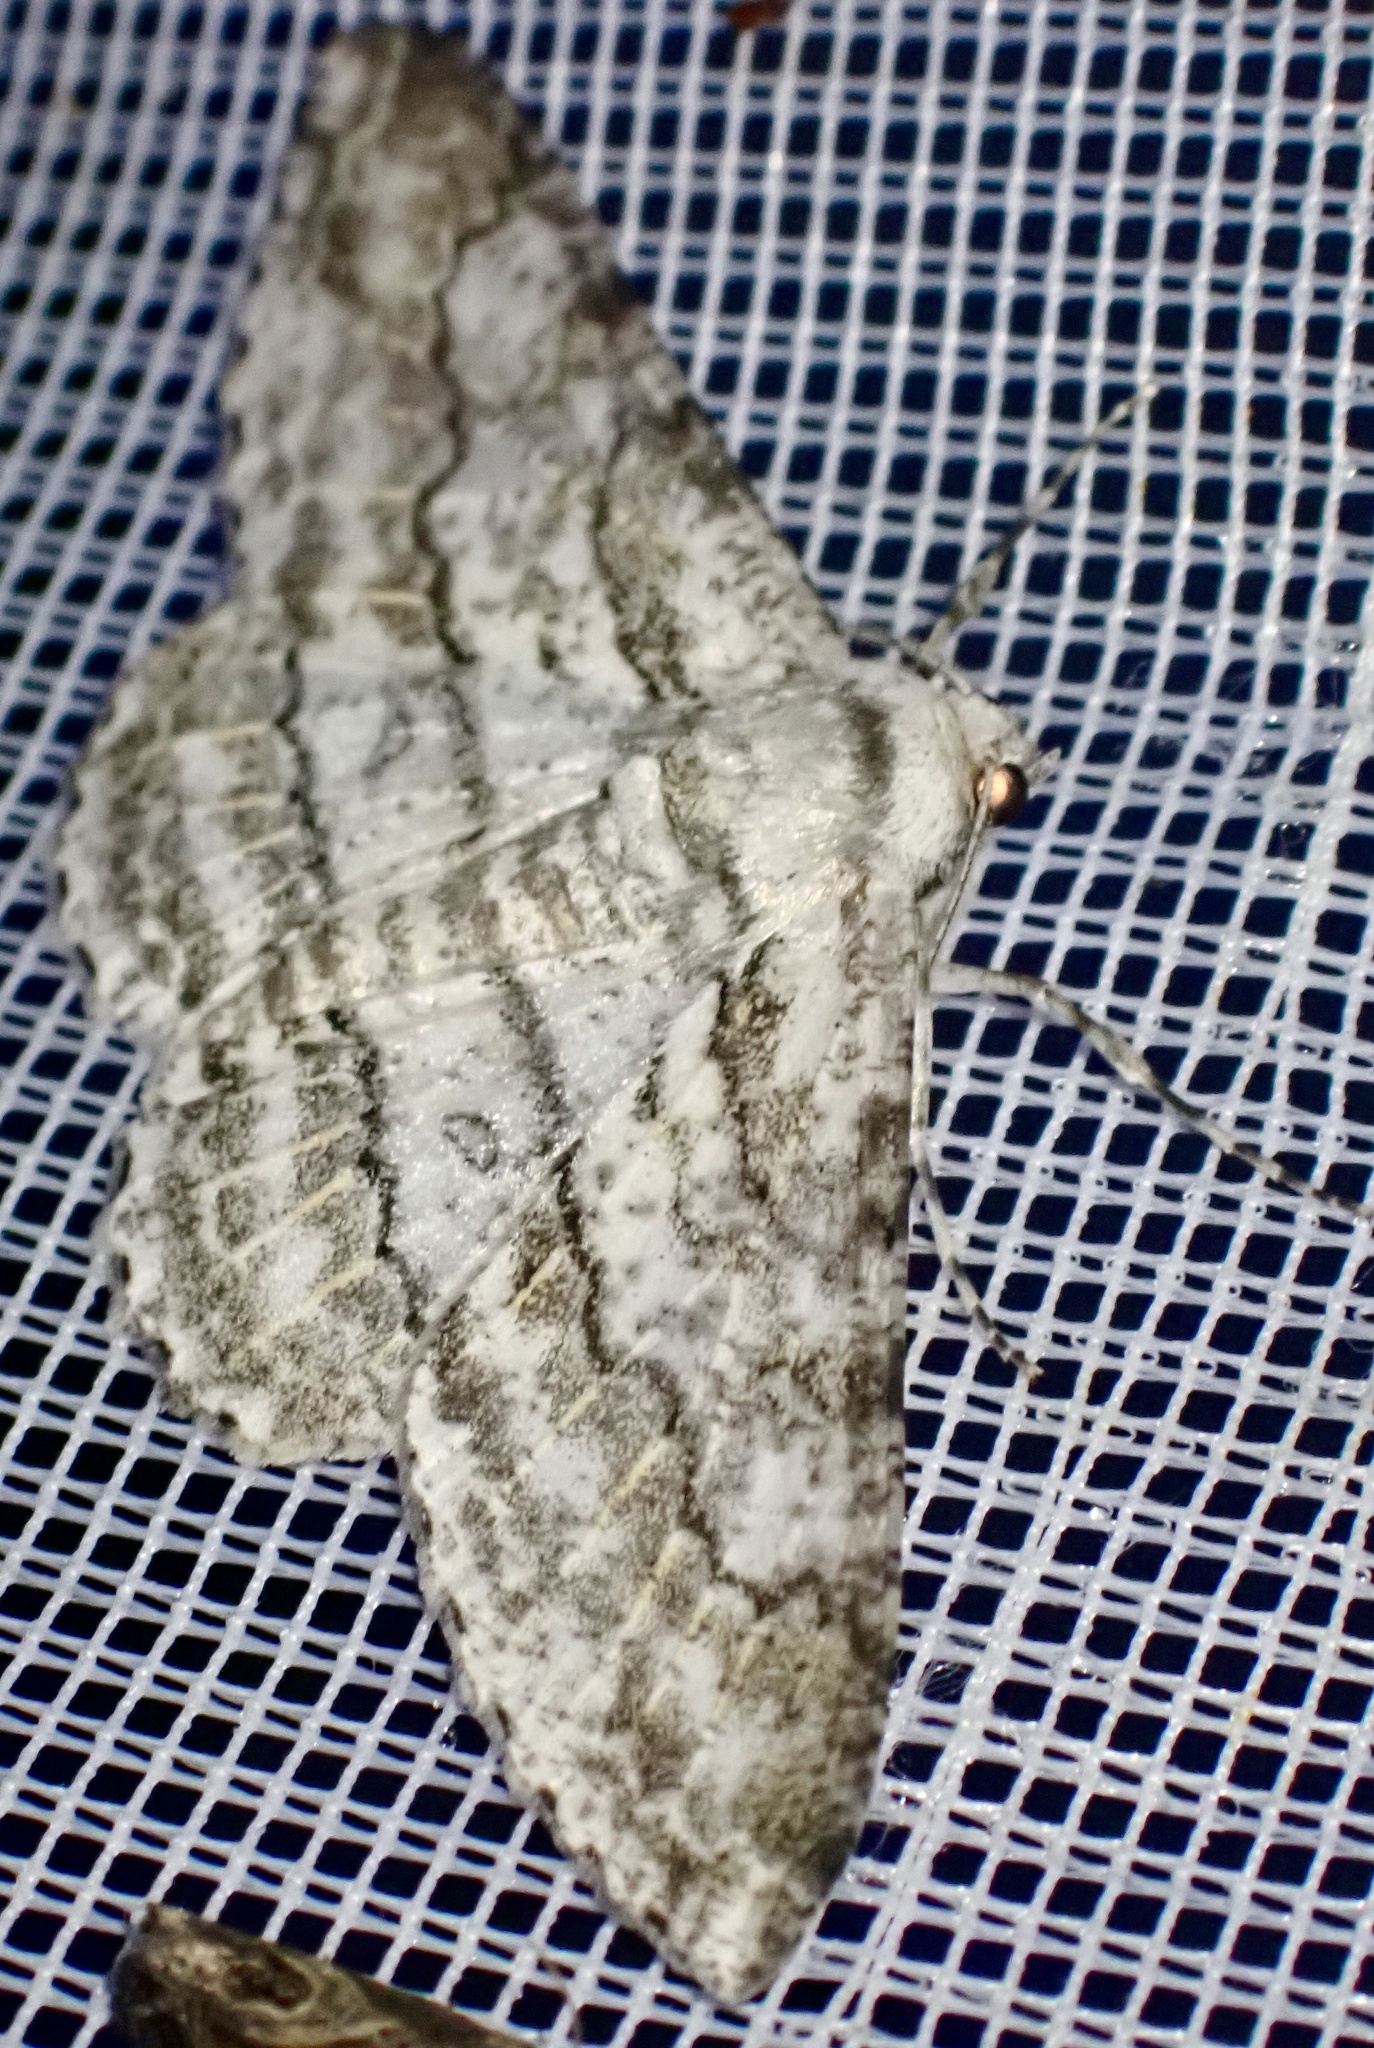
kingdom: Animalia
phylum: Arthropoda
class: Insecta
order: Lepidoptera
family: Geometridae
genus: Ascotis
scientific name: Ascotis margarita
